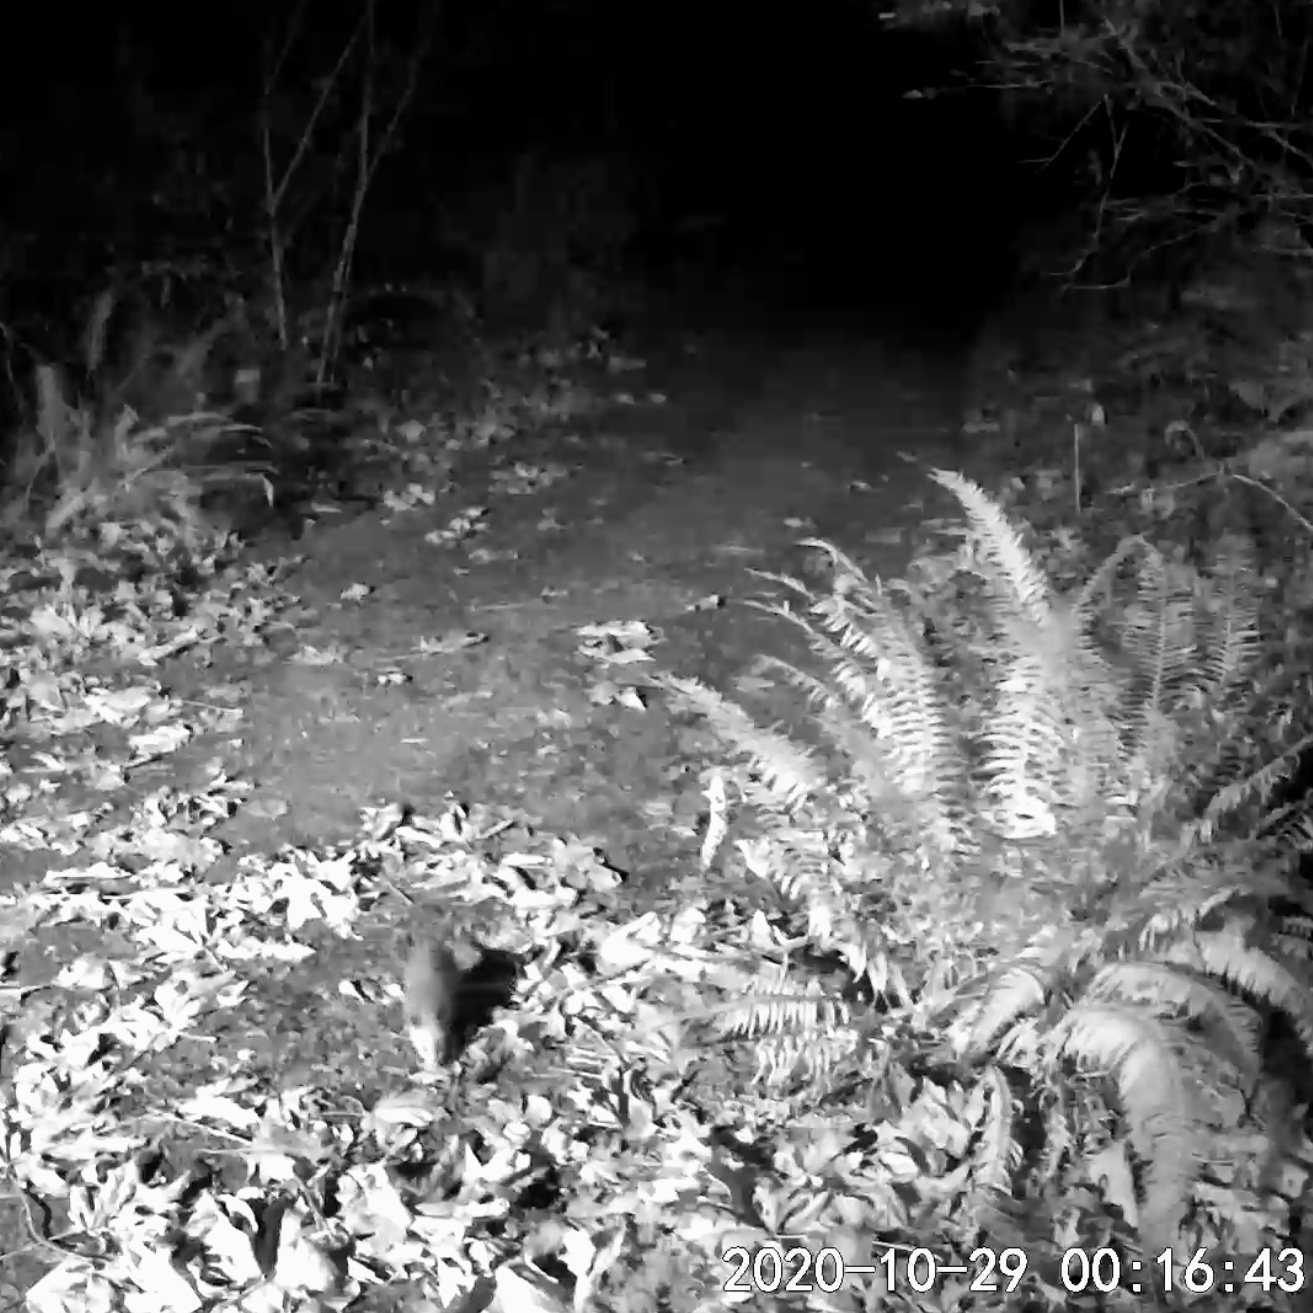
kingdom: Animalia
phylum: Chordata
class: Mammalia
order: Didelphimorphia
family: Didelphidae
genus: Didelphis
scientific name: Didelphis virginiana
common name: Virginia opossum
